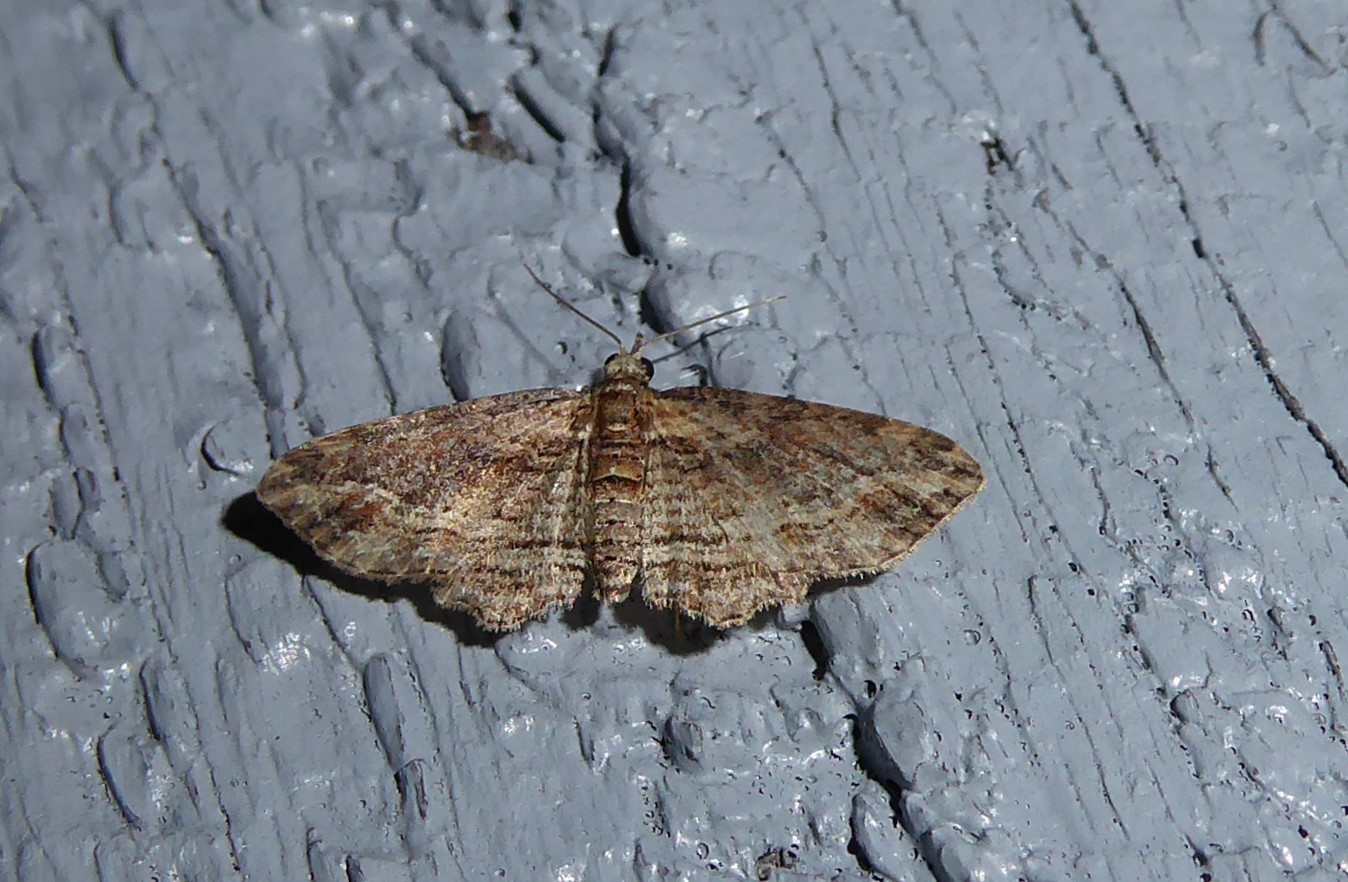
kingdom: Animalia
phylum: Arthropoda
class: Insecta
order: Lepidoptera
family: Geometridae
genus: Chloroclystis
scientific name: Chloroclystis filata
